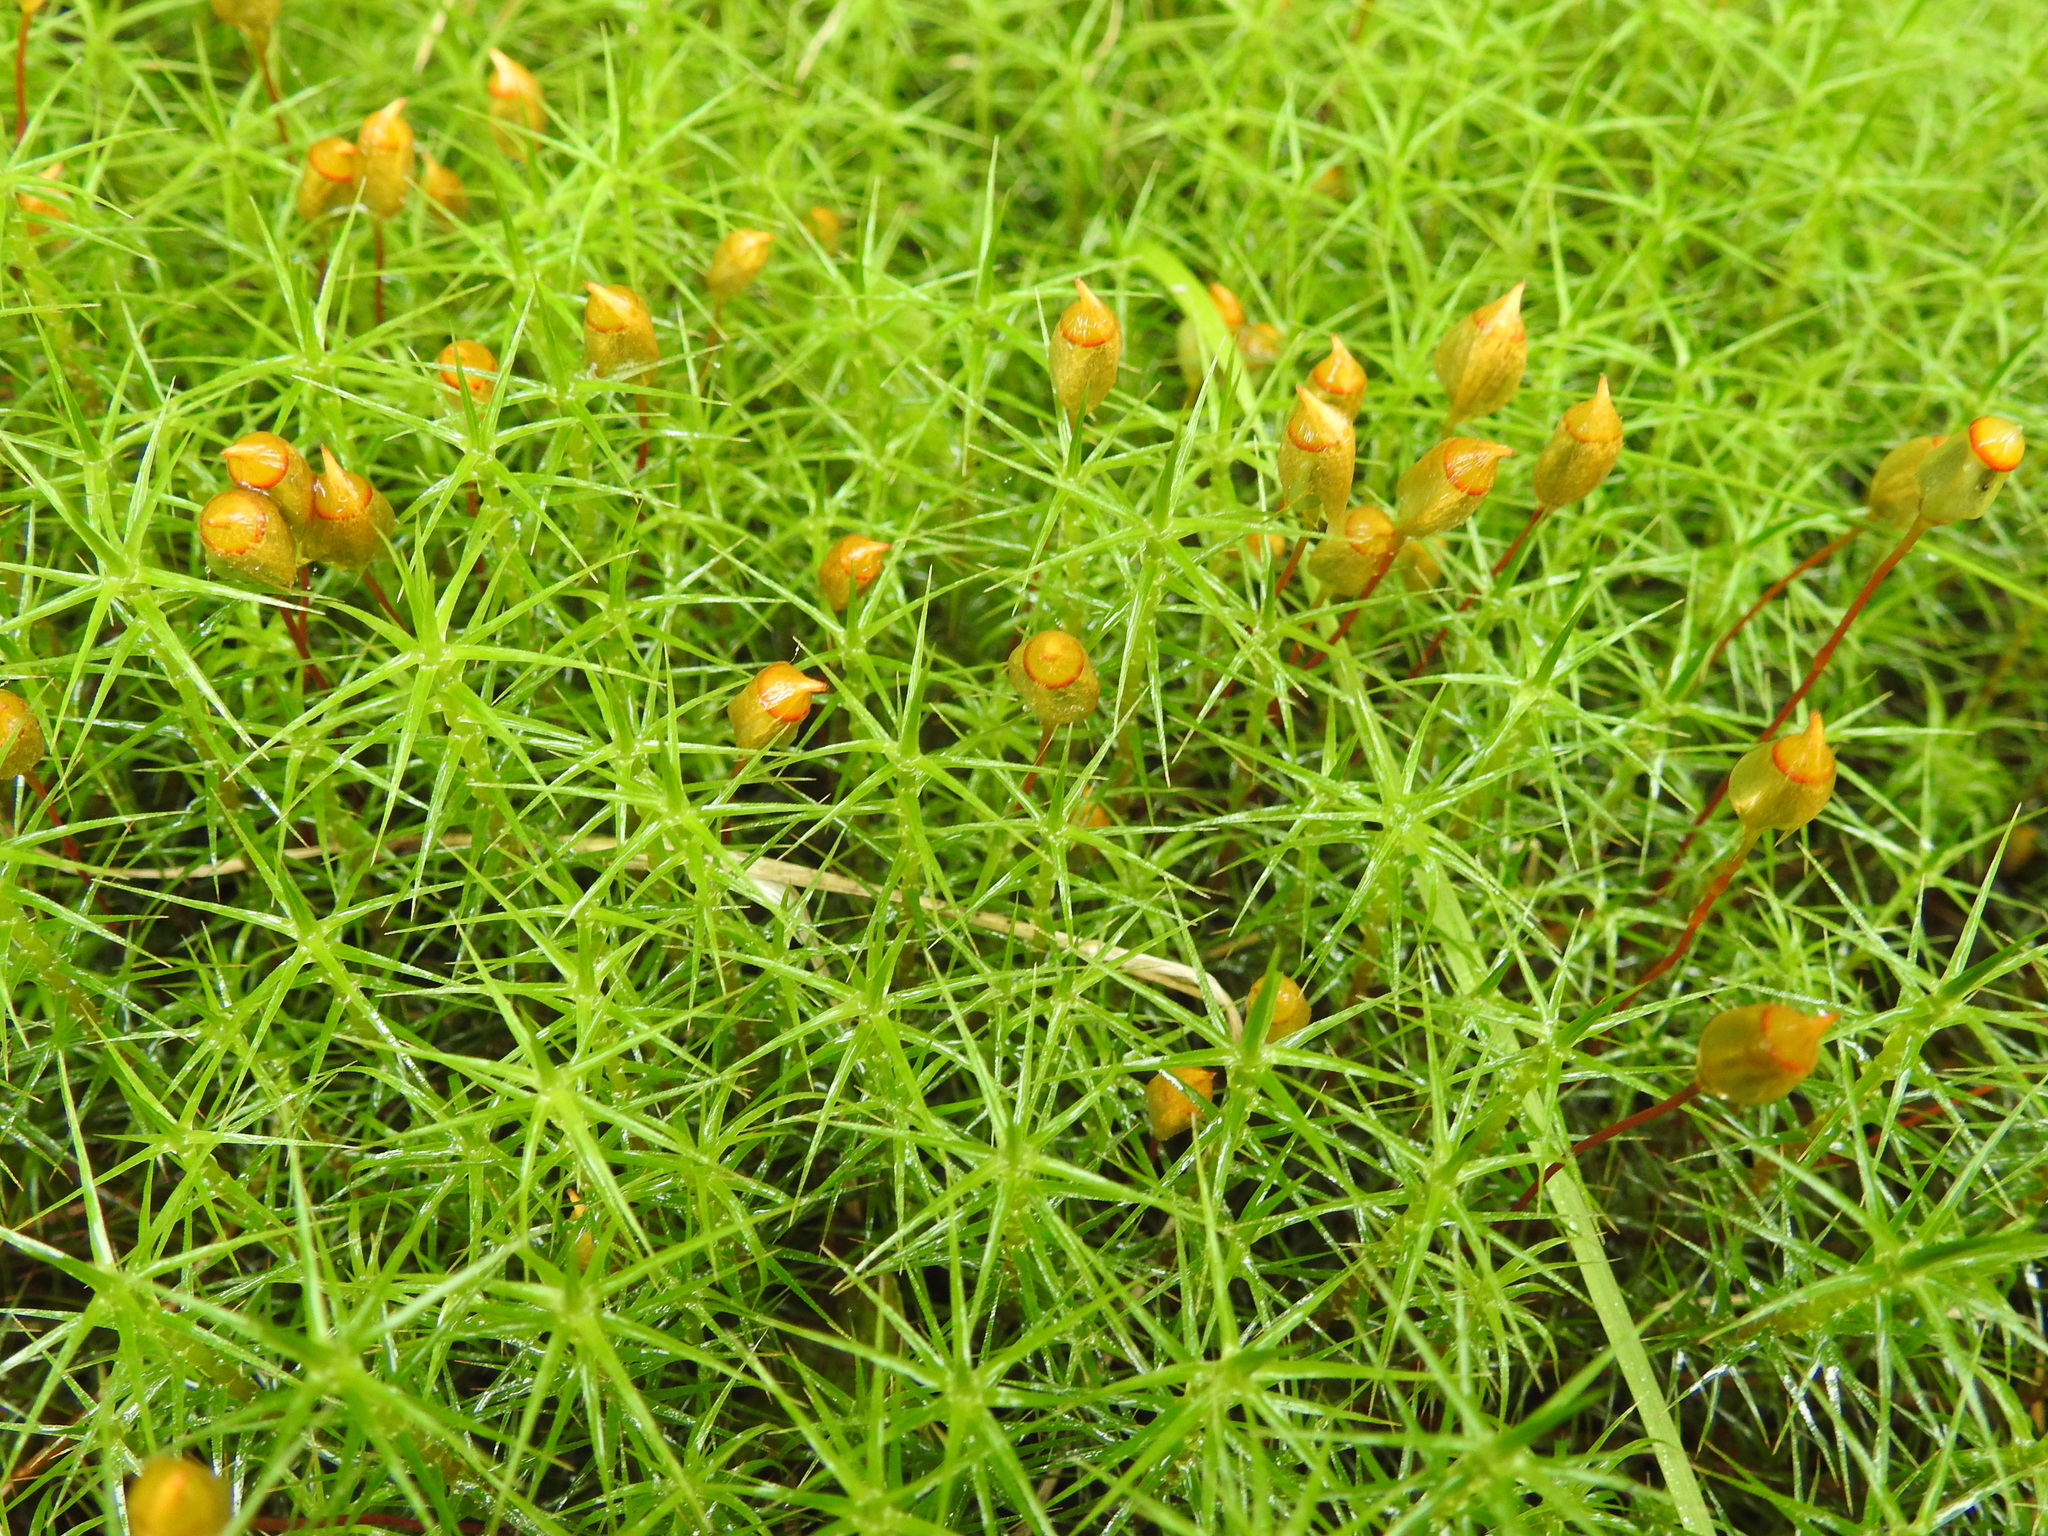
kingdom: Plantae
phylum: Bryophyta
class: Polytrichopsida
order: Polytrichales
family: Polytrichaceae
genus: Polytrichum
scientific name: Polytrichum commune
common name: Common haircap
